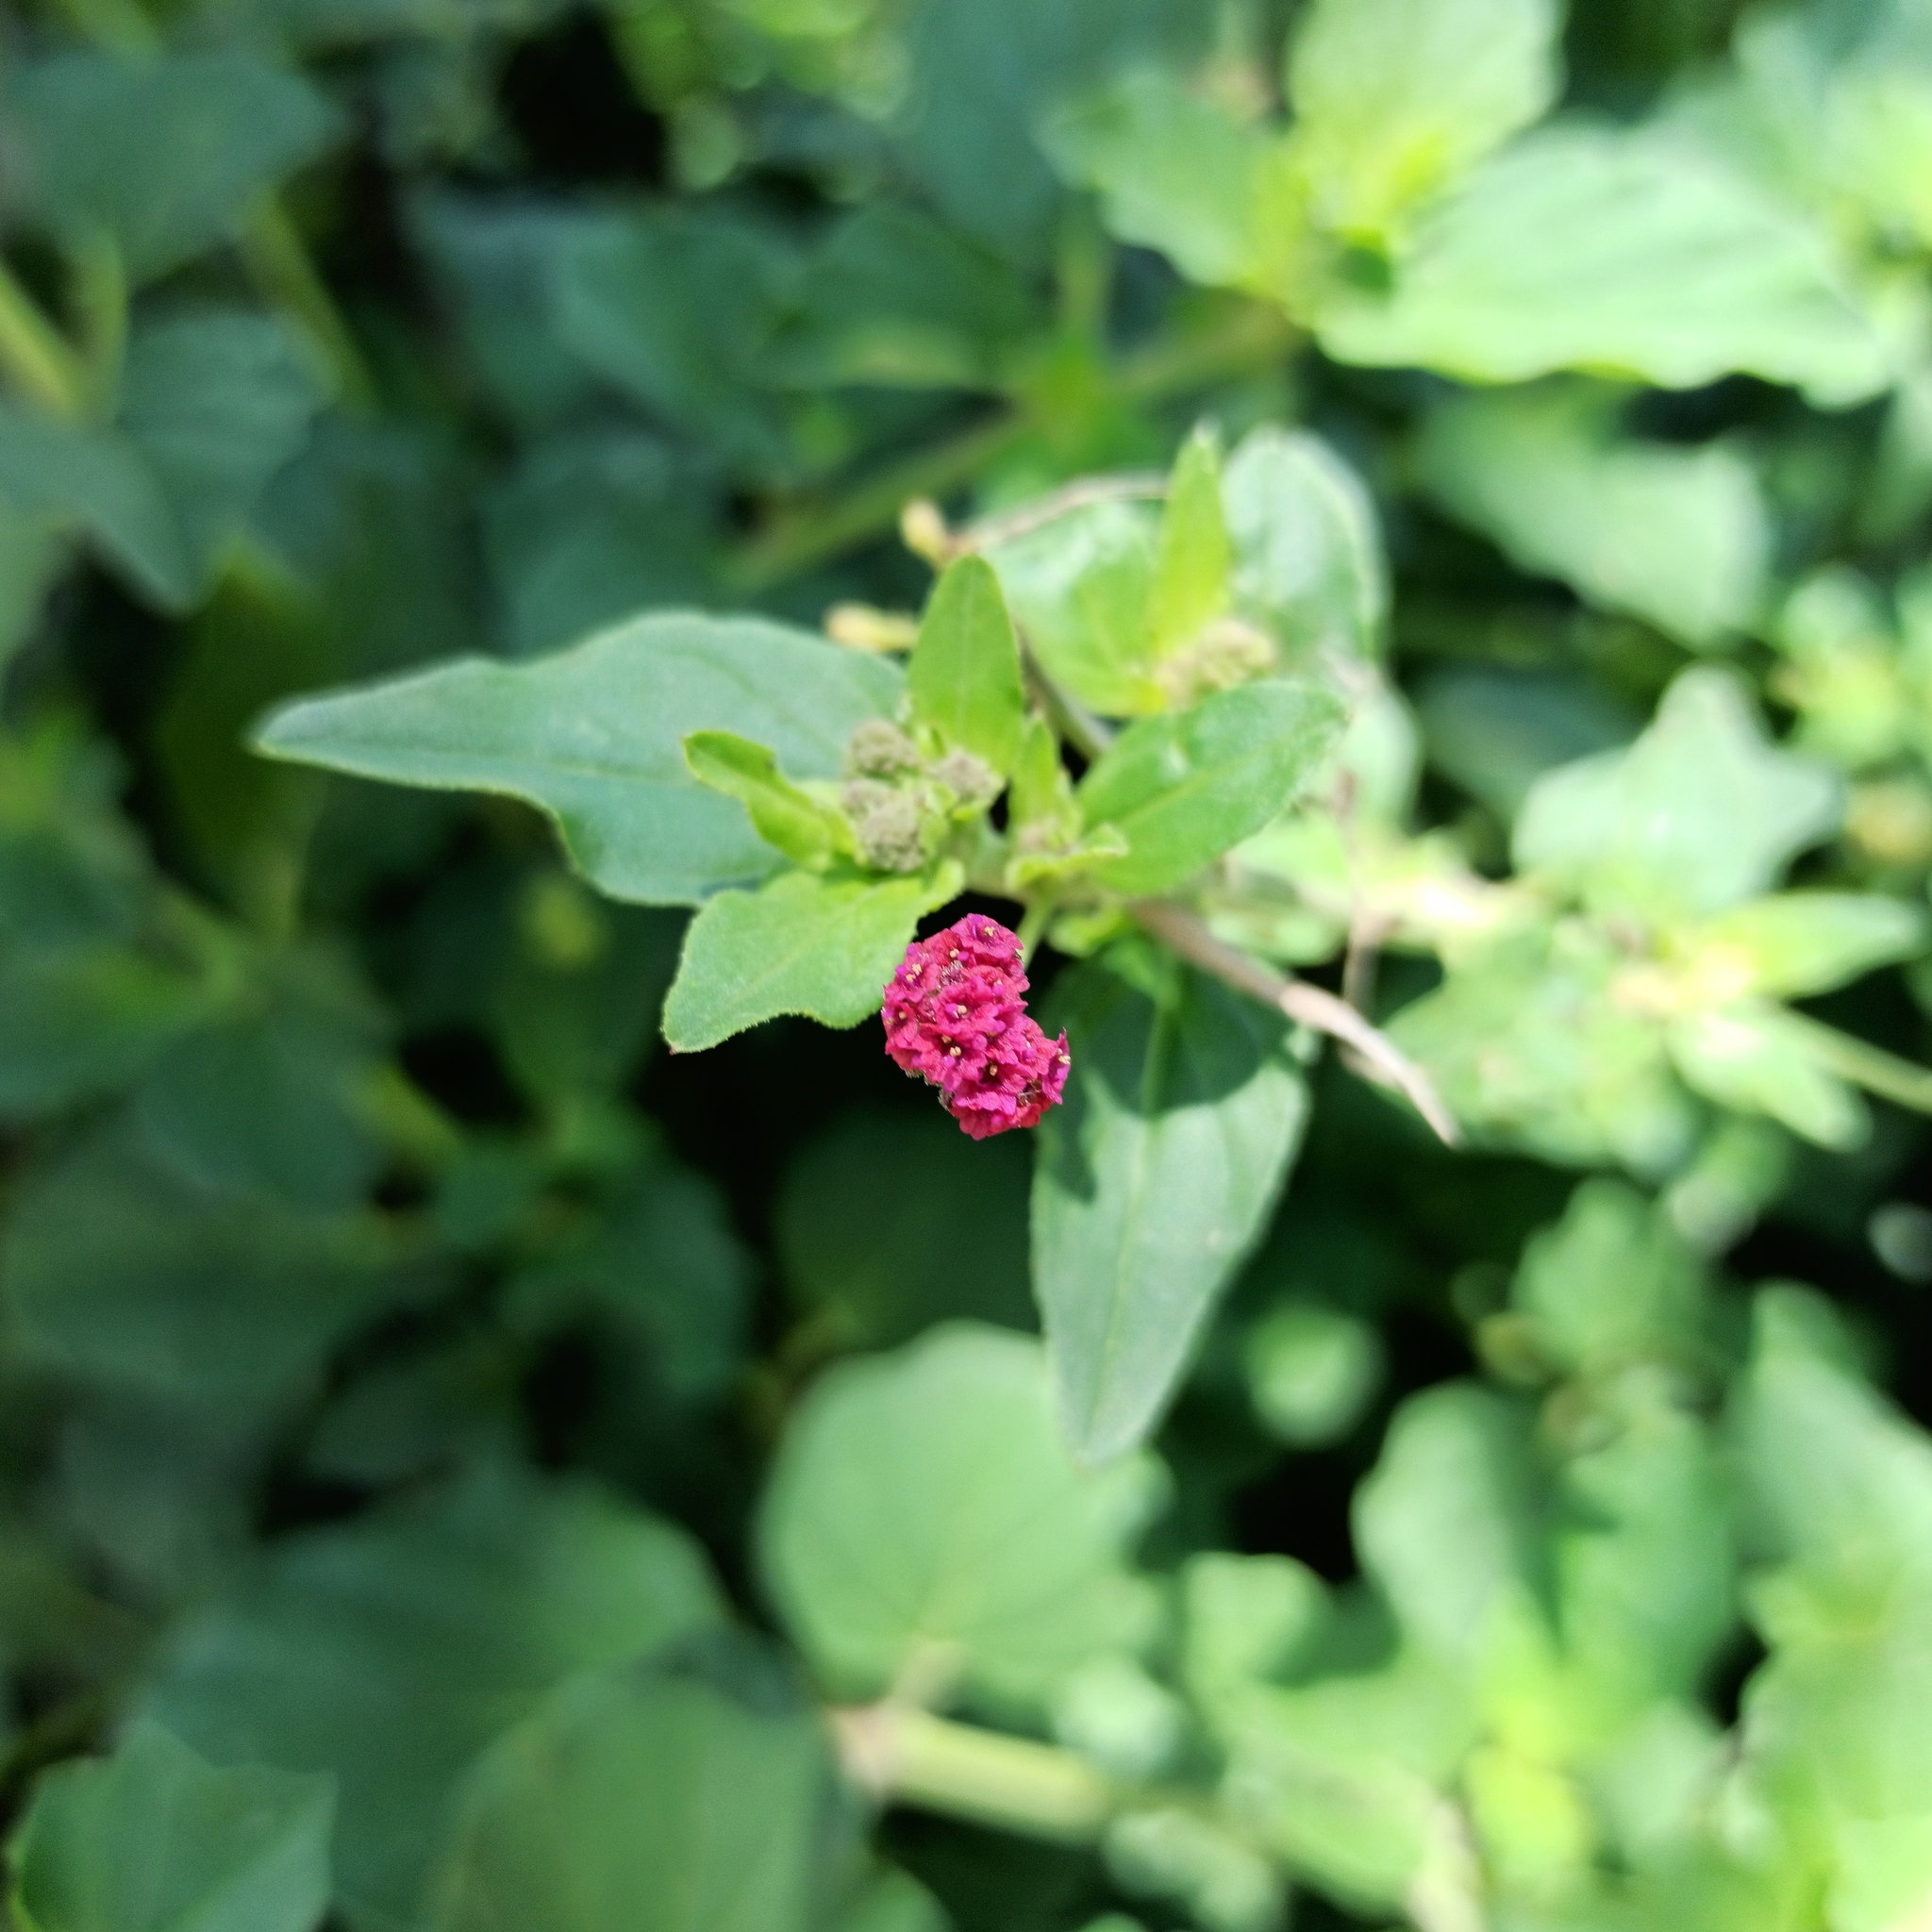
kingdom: Plantae
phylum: Tracheophyta
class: Magnoliopsida
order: Caryophyllales
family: Nyctaginaceae
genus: Boerhavia
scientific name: Boerhavia coccinea
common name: Scarlet spiderling
